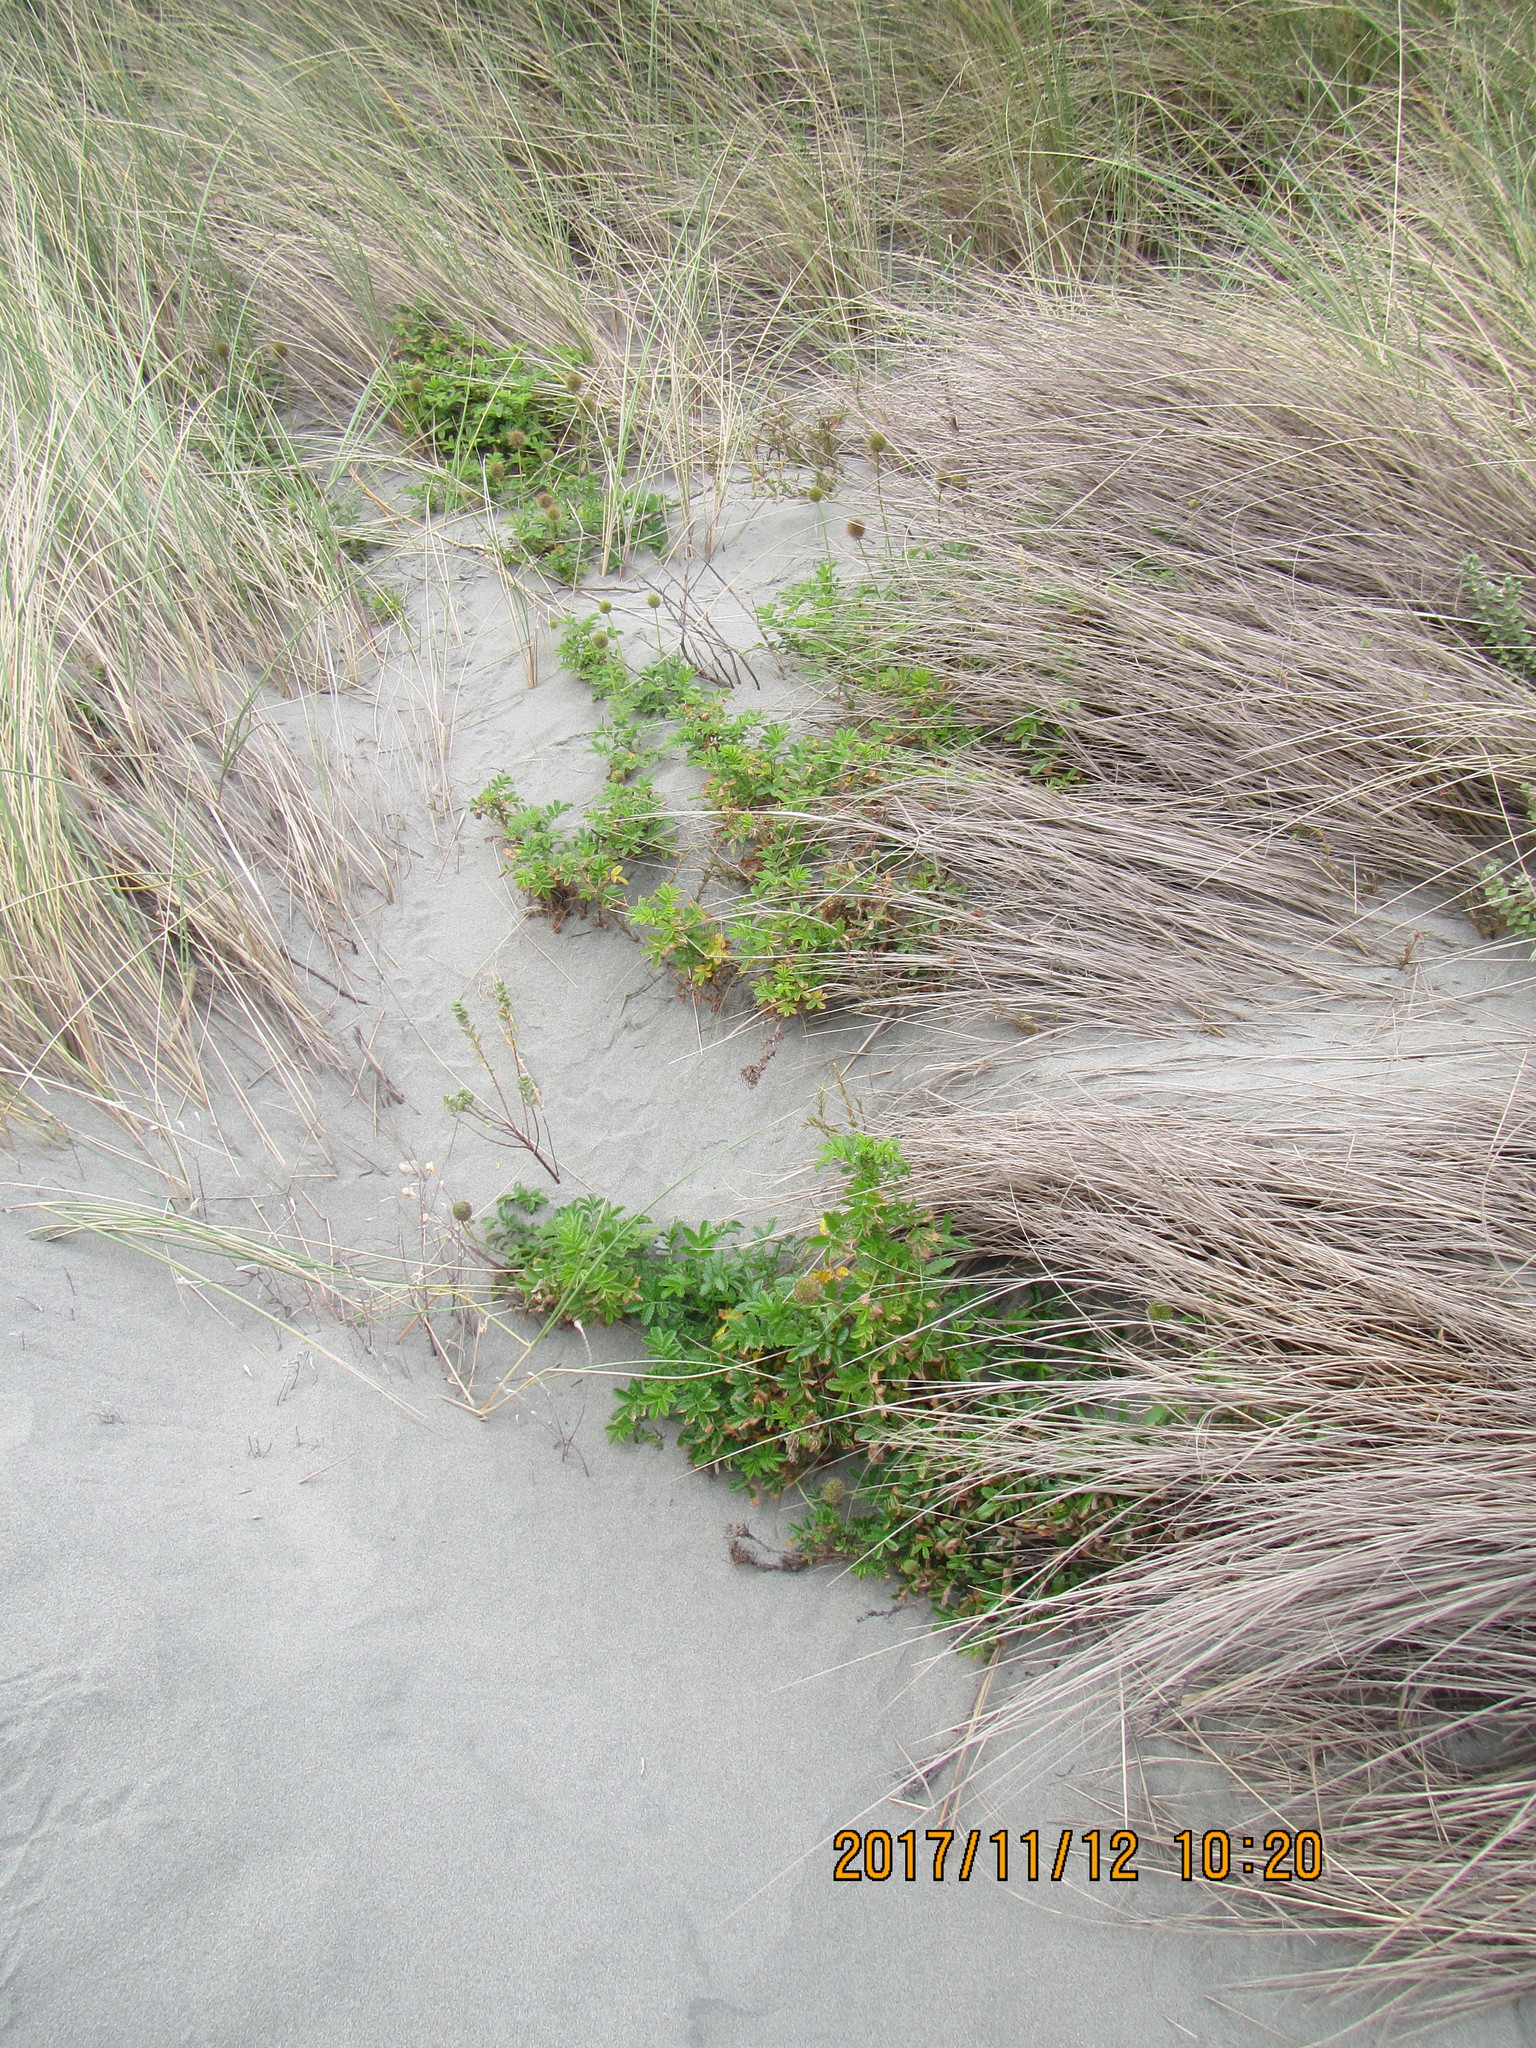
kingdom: Plantae
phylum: Tracheophyta
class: Magnoliopsida
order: Rosales
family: Rosaceae
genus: Acaena
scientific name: Acaena novae-zelandiae
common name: Pirri-pirri-bur
